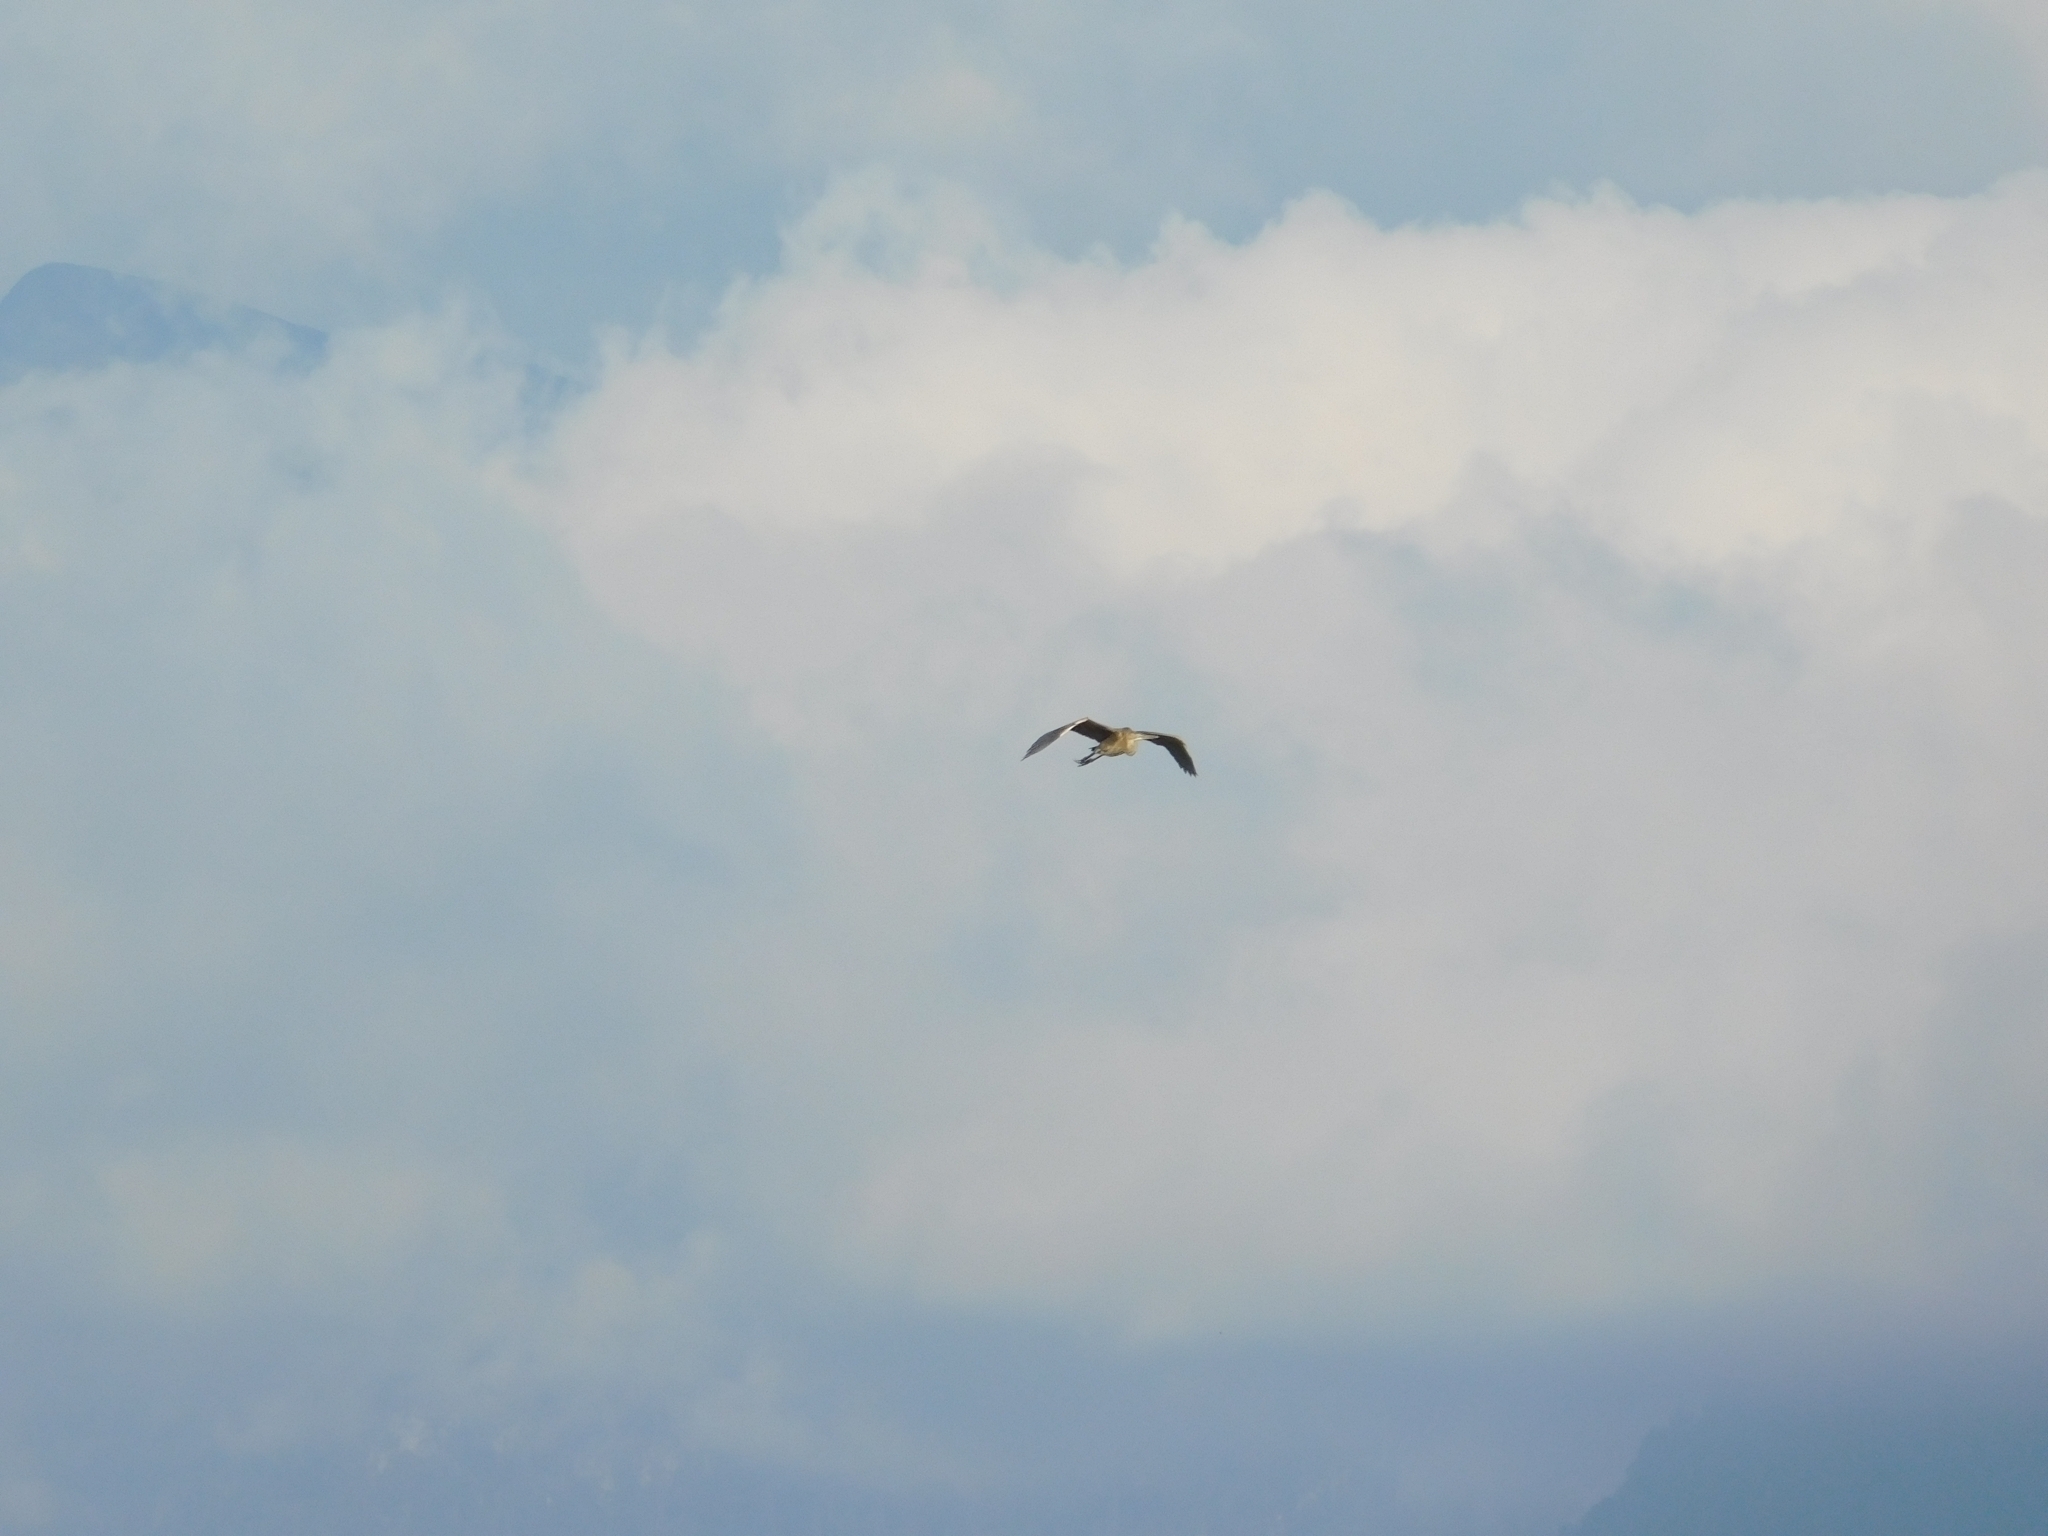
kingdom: Animalia
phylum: Chordata
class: Aves
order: Pelecaniformes
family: Ardeidae
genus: Ardea
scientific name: Ardea cinerea
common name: Grey heron
